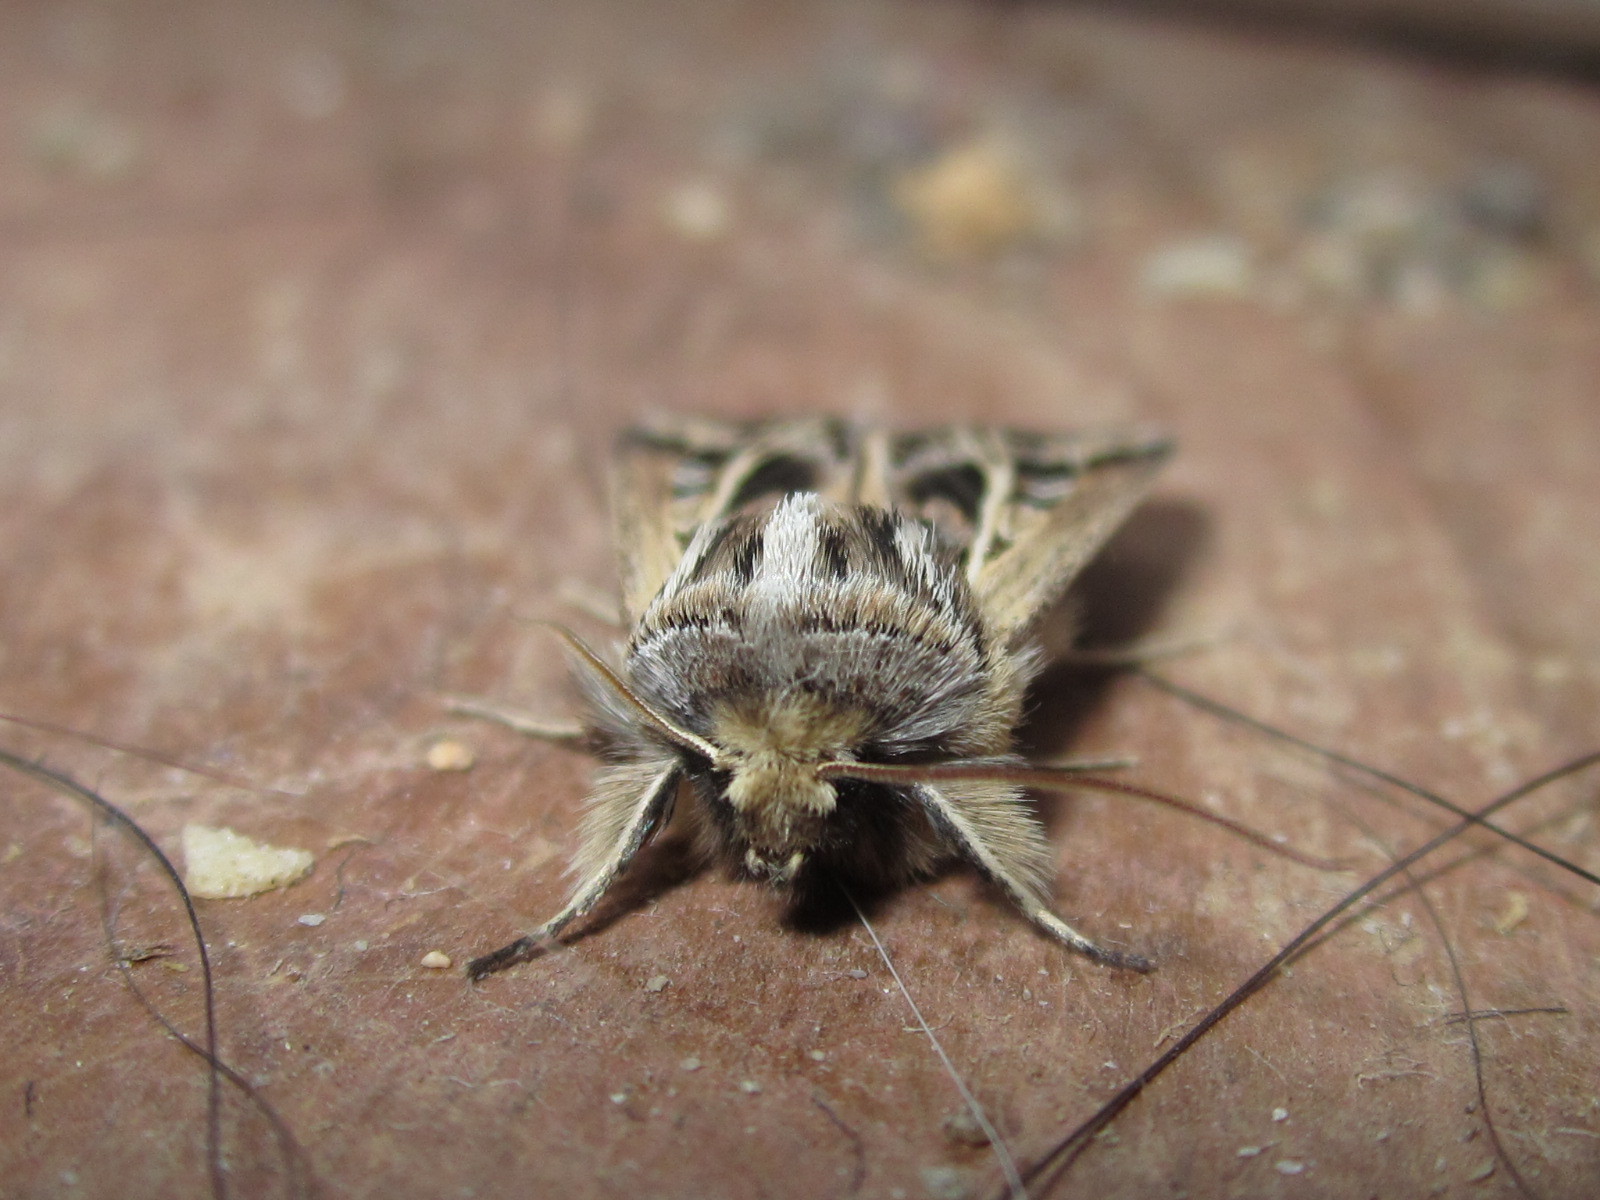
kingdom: Animalia
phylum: Arthropoda
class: Insecta
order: Lepidoptera
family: Noctuidae
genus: Dargida
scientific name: Dargida
